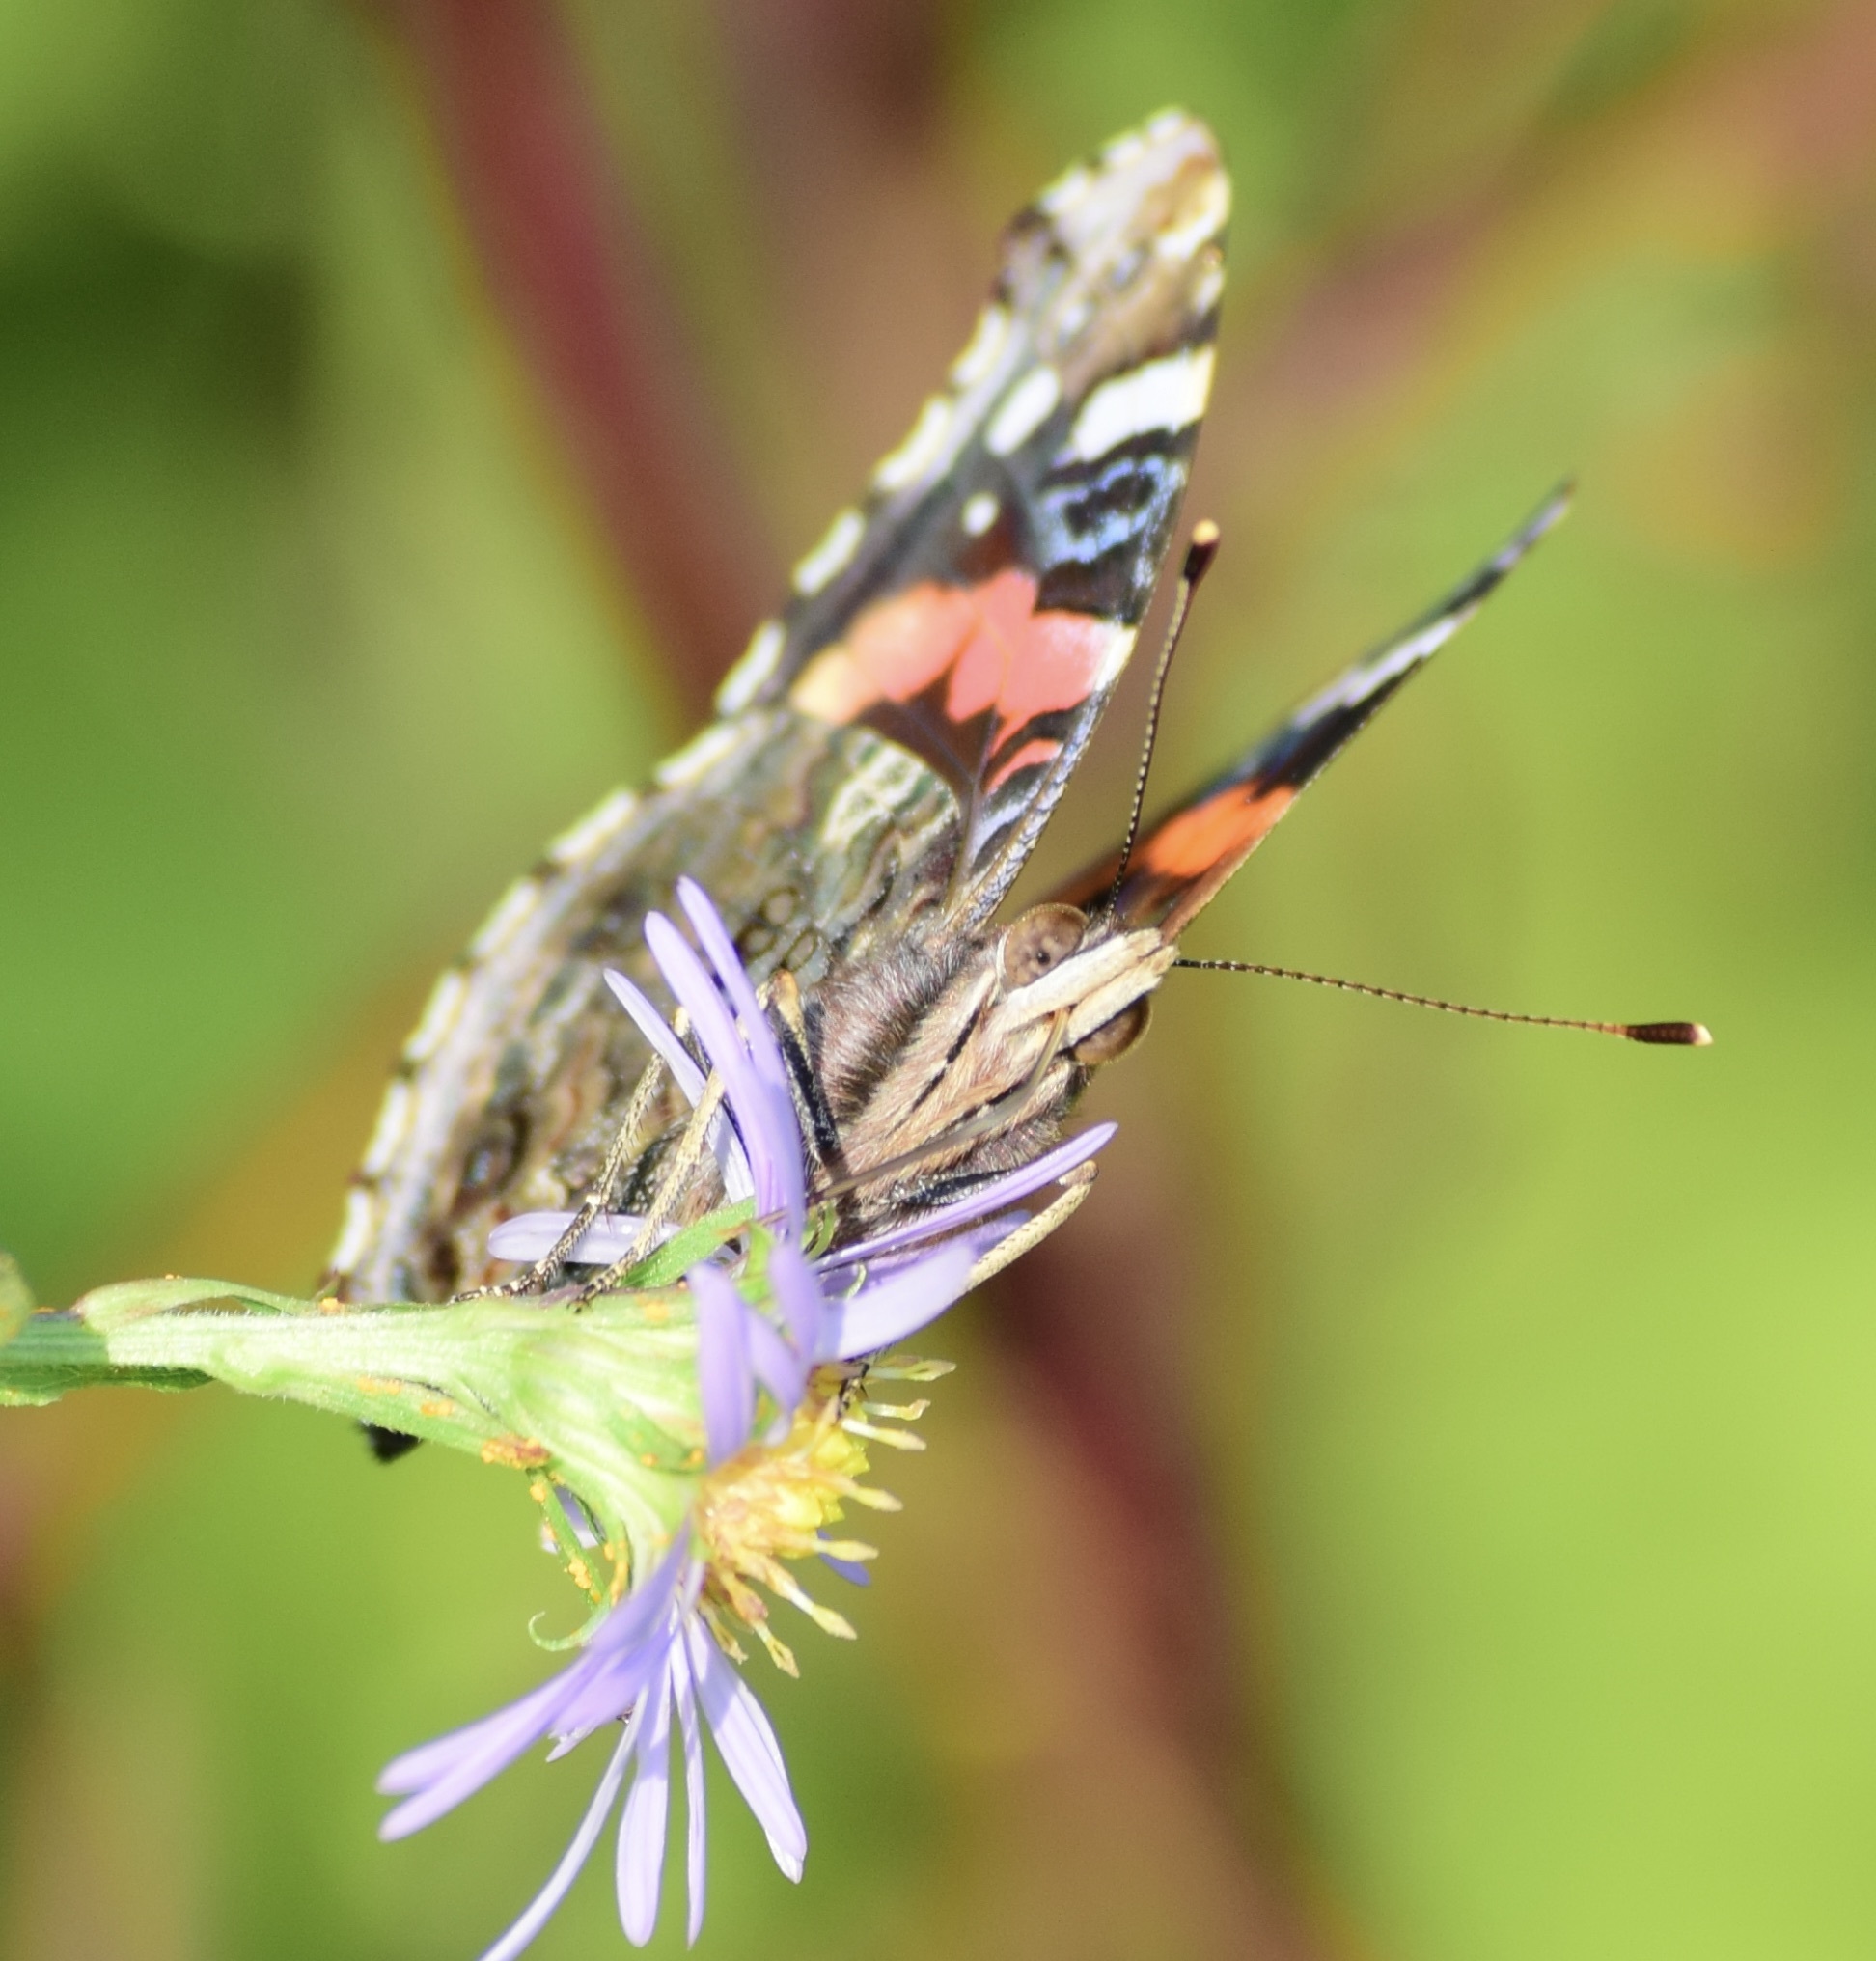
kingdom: Animalia
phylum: Arthropoda
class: Insecta
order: Lepidoptera
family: Nymphalidae
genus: Vanessa
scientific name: Vanessa atalanta
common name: Red admiral
